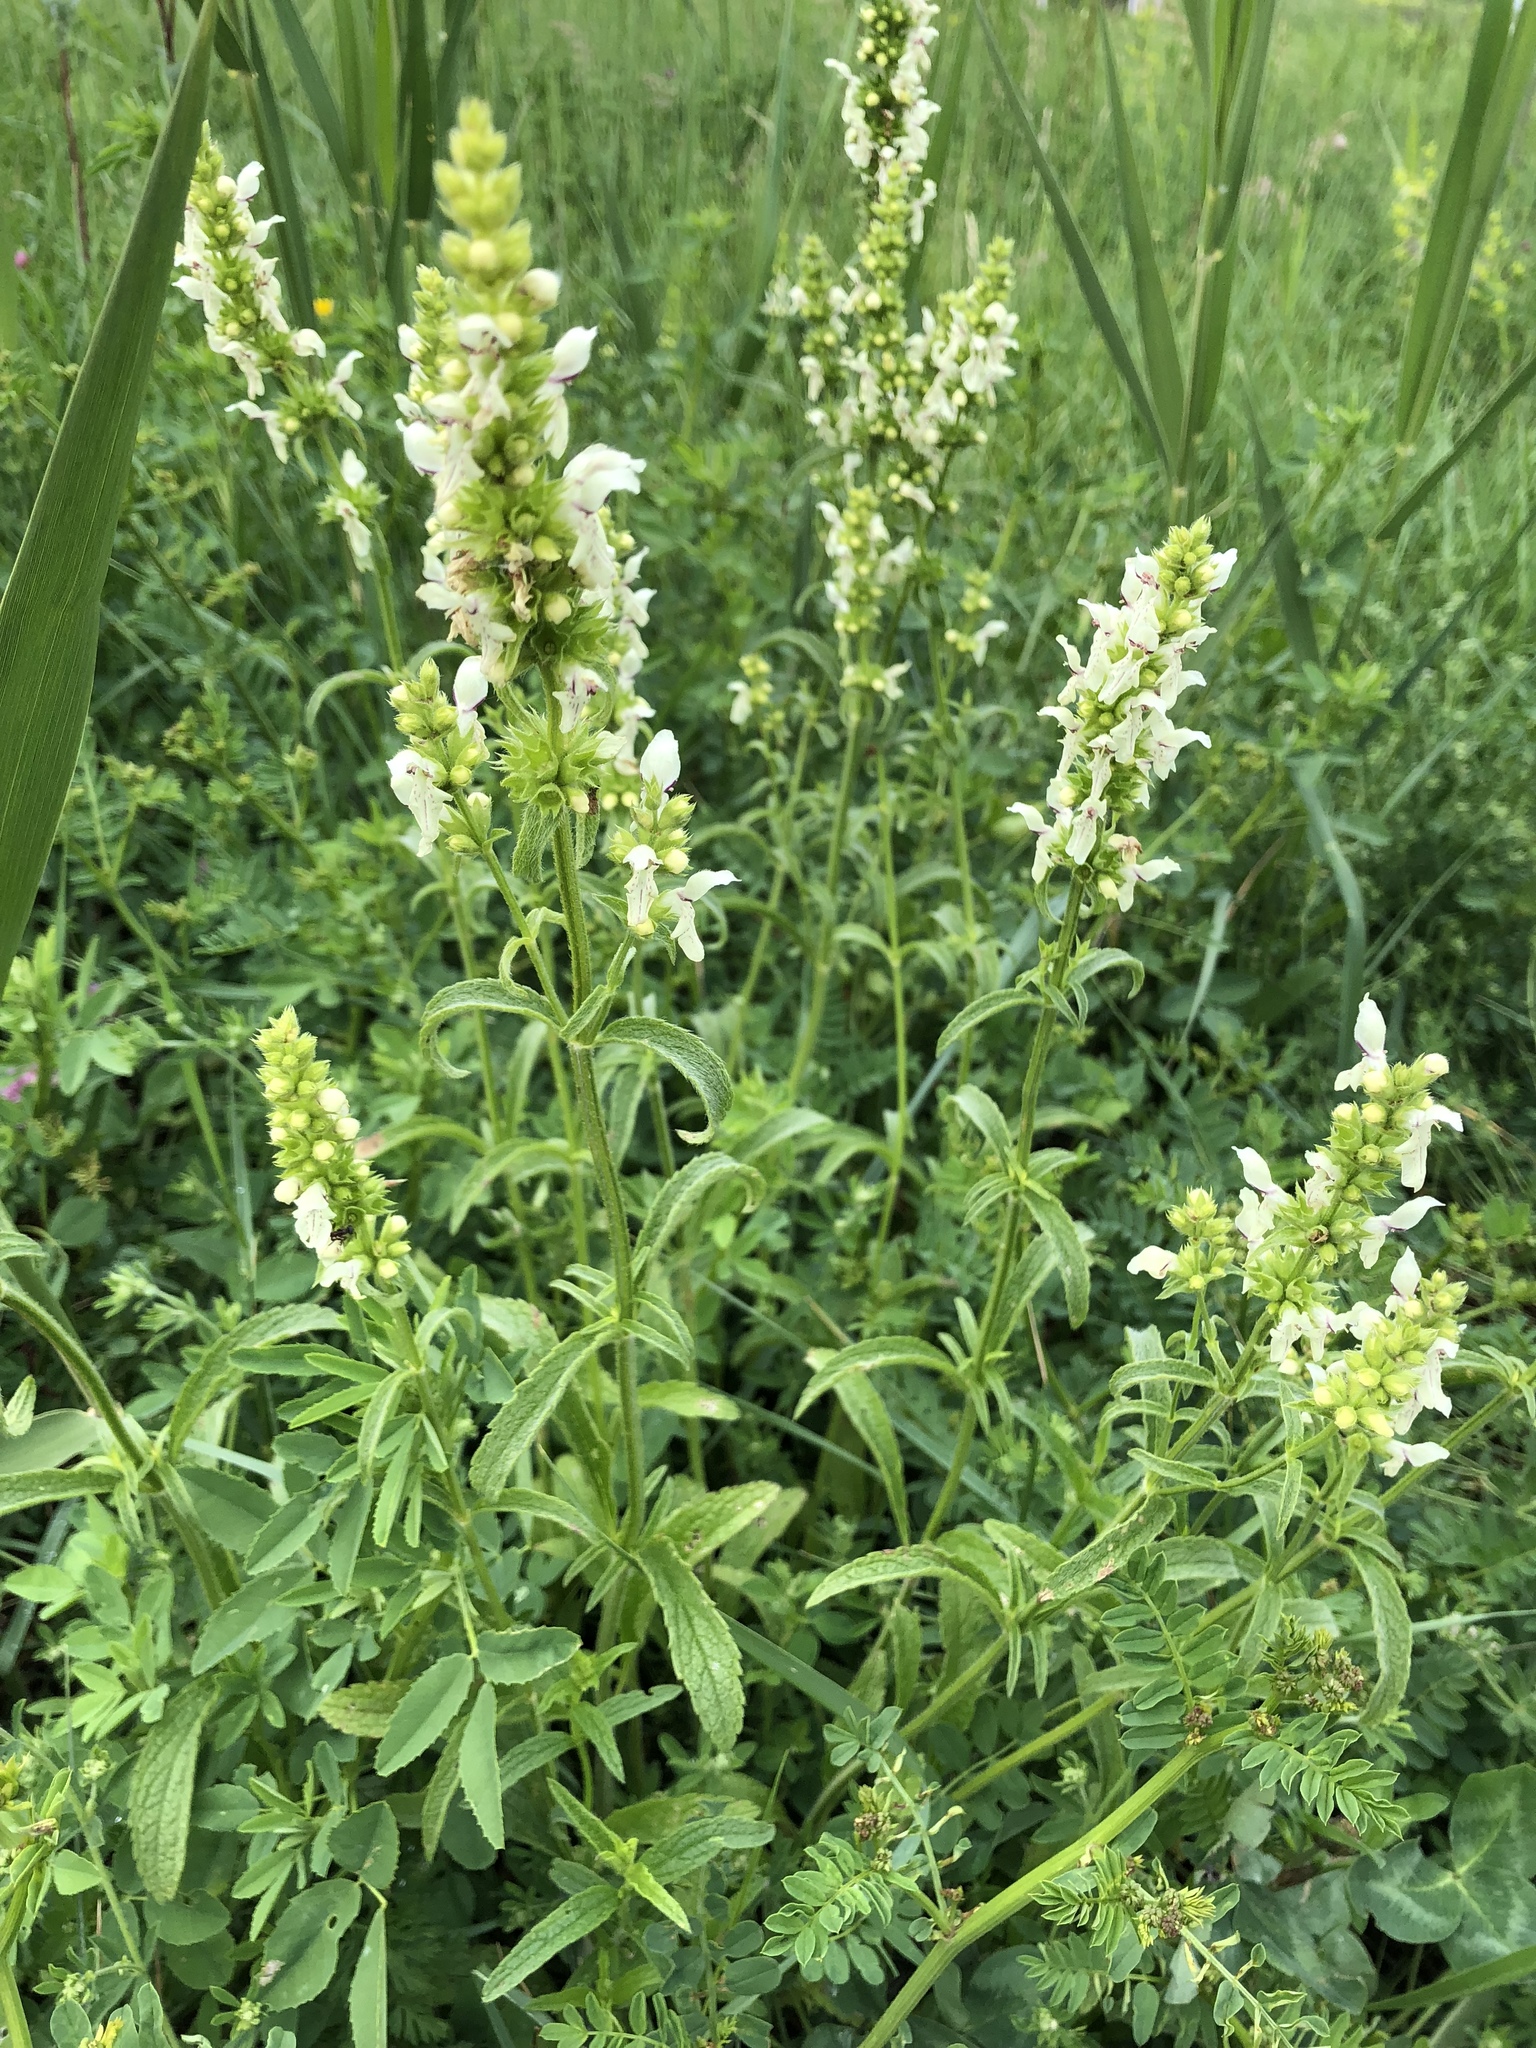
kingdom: Plantae
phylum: Tracheophyta
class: Magnoliopsida
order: Lamiales
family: Lamiaceae
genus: Stachys
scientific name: Stachys recta
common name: Perennial yellow-woundwort
